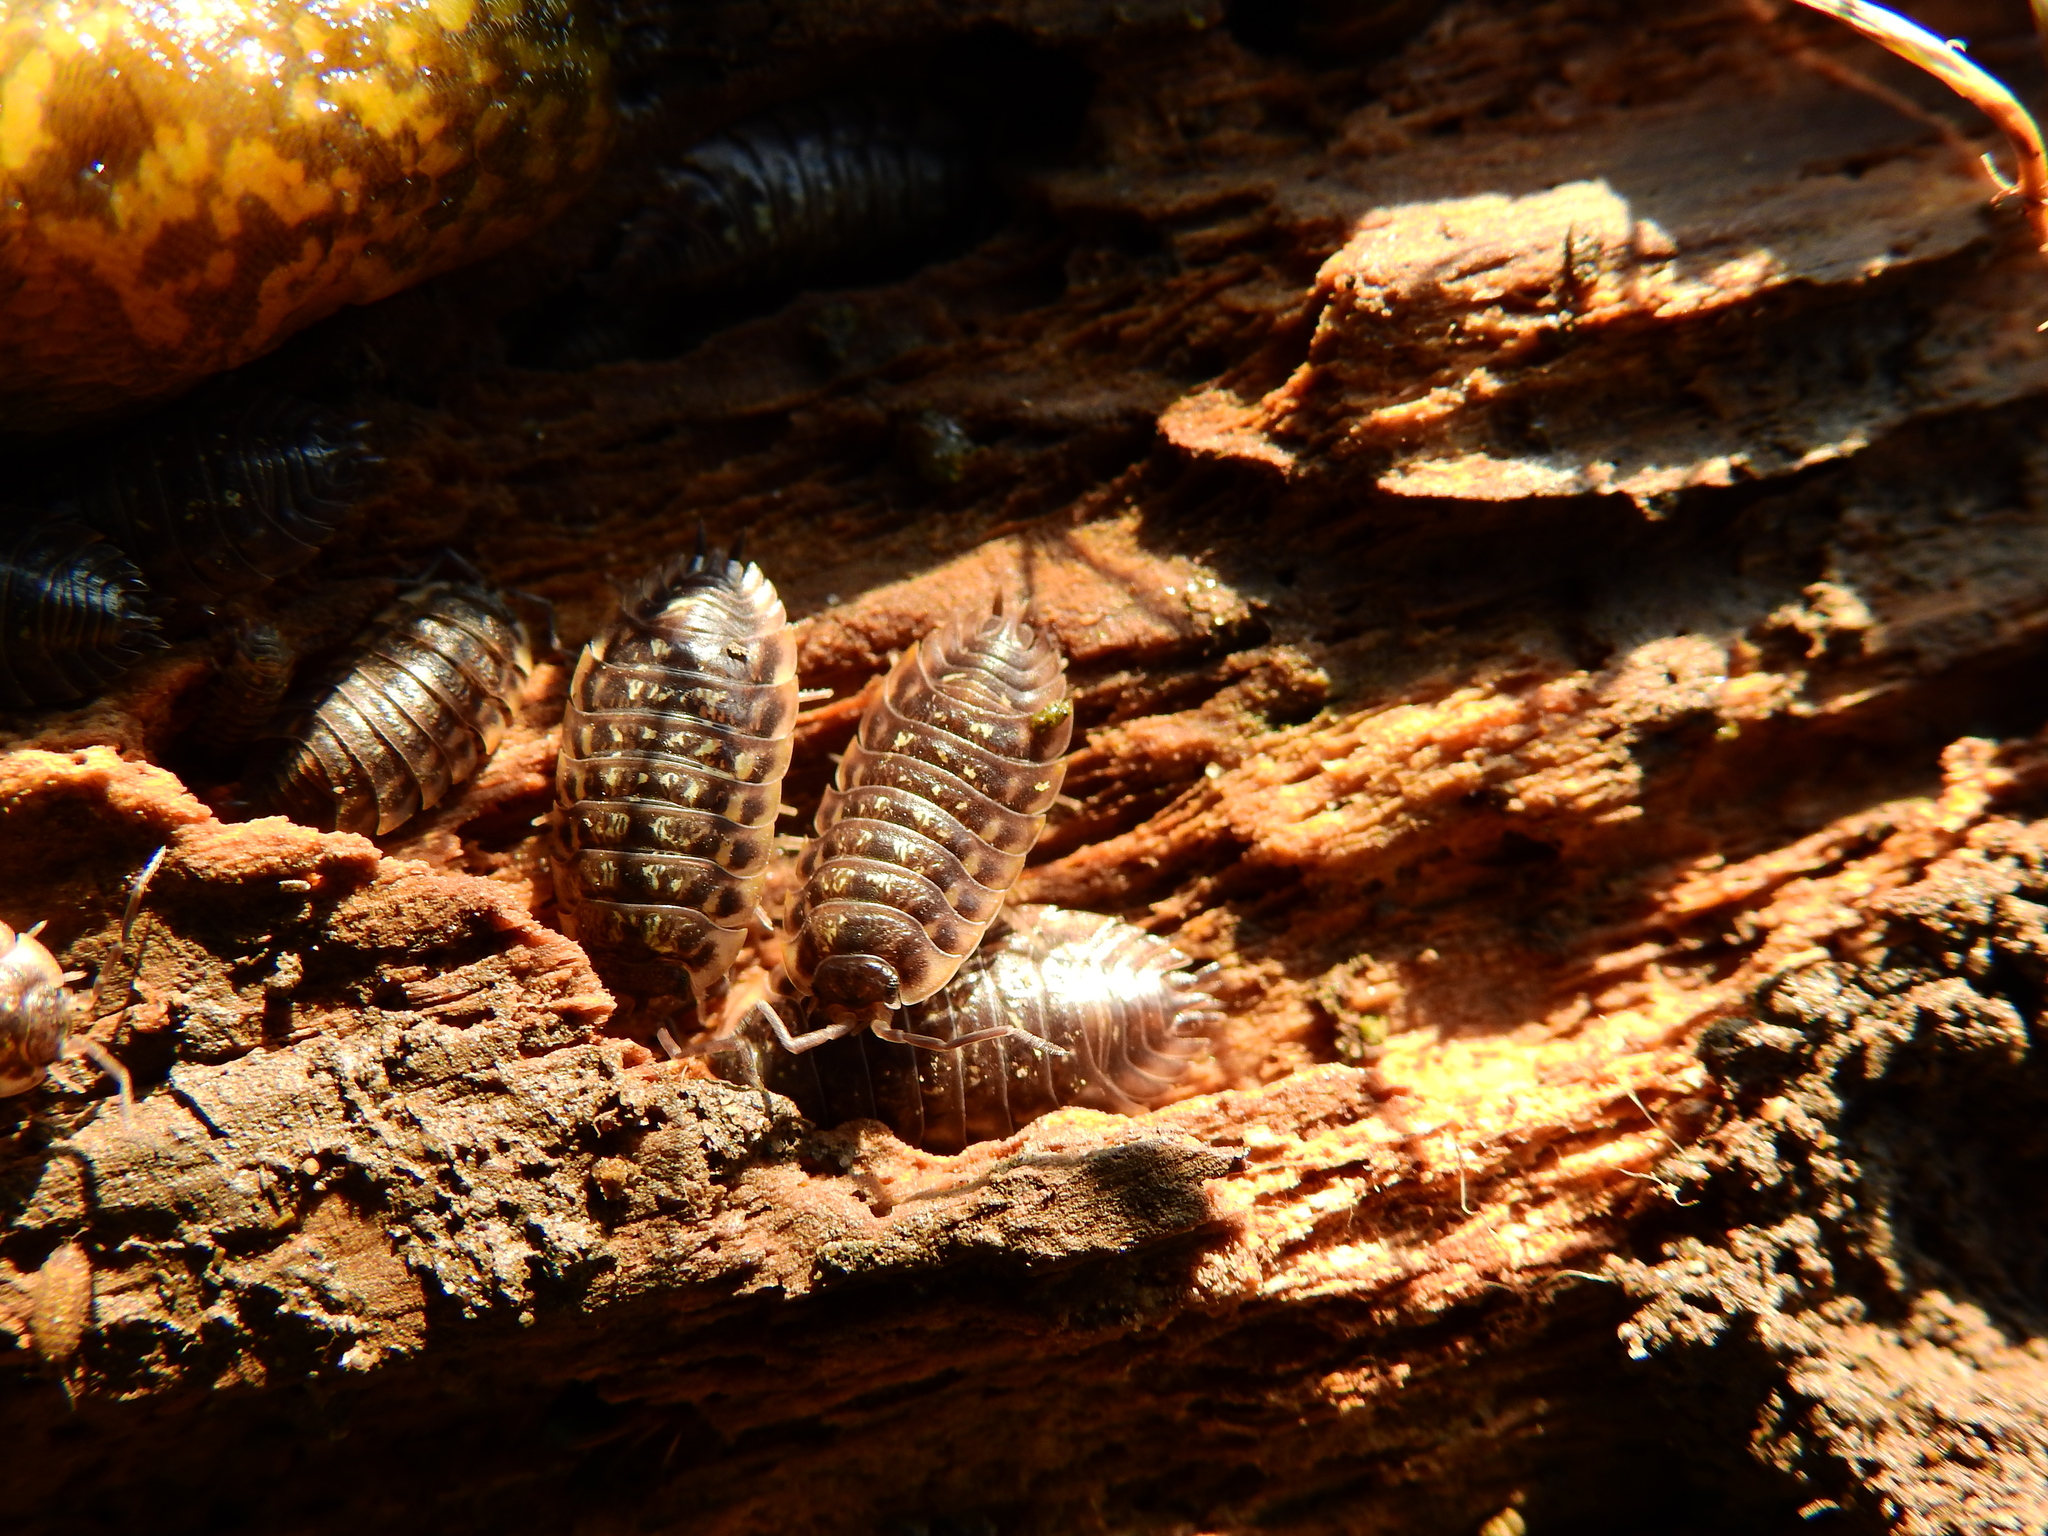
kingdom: Animalia
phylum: Arthropoda
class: Malacostraca
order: Isopoda
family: Oniscidae
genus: Oniscus
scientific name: Oniscus asellus
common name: Common shiny woodlouse
